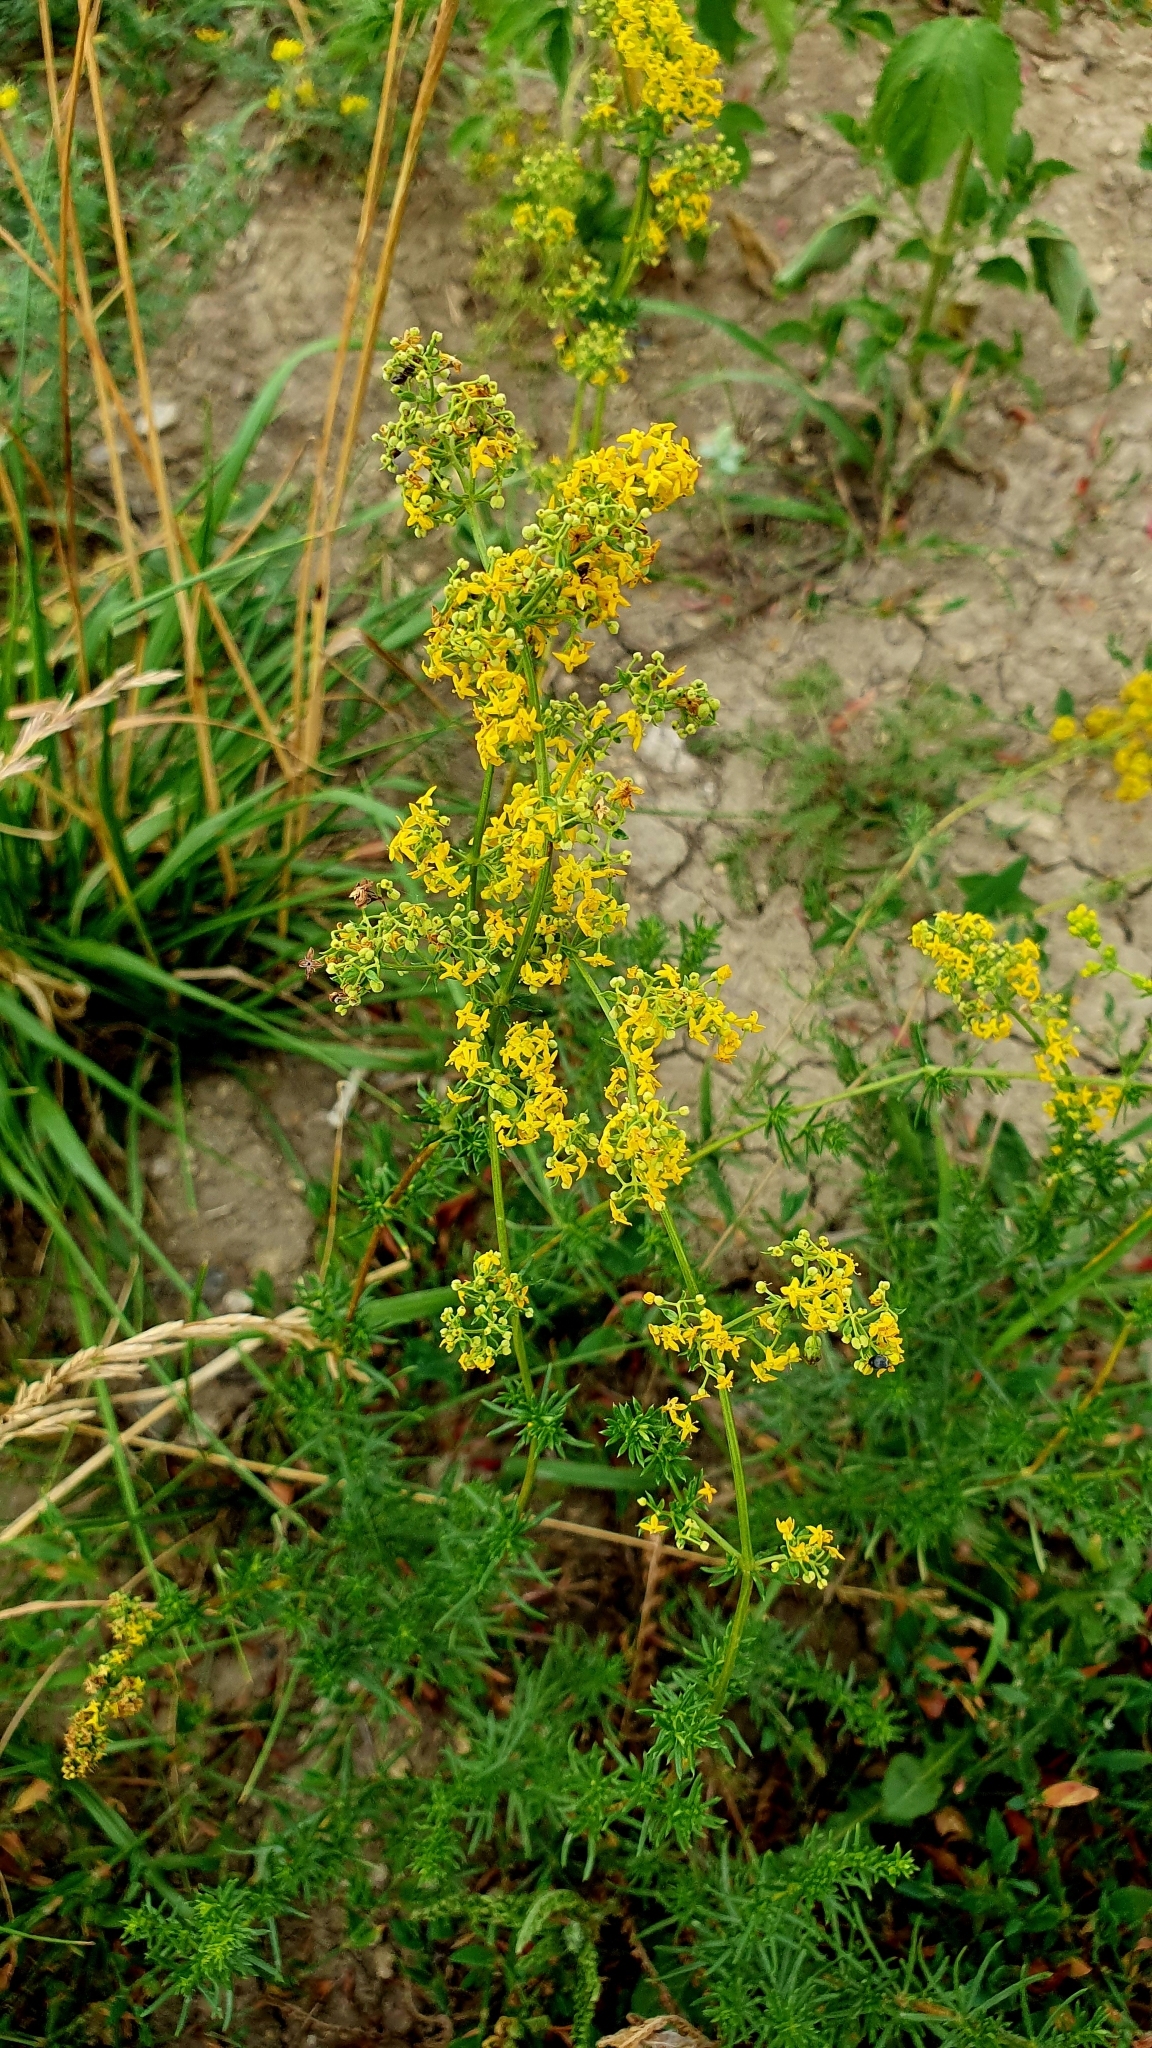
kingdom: Plantae
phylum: Tracheophyta
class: Magnoliopsida
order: Gentianales
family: Rubiaceae
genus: Galium
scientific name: Galium verum
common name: Lady's bedstraw
